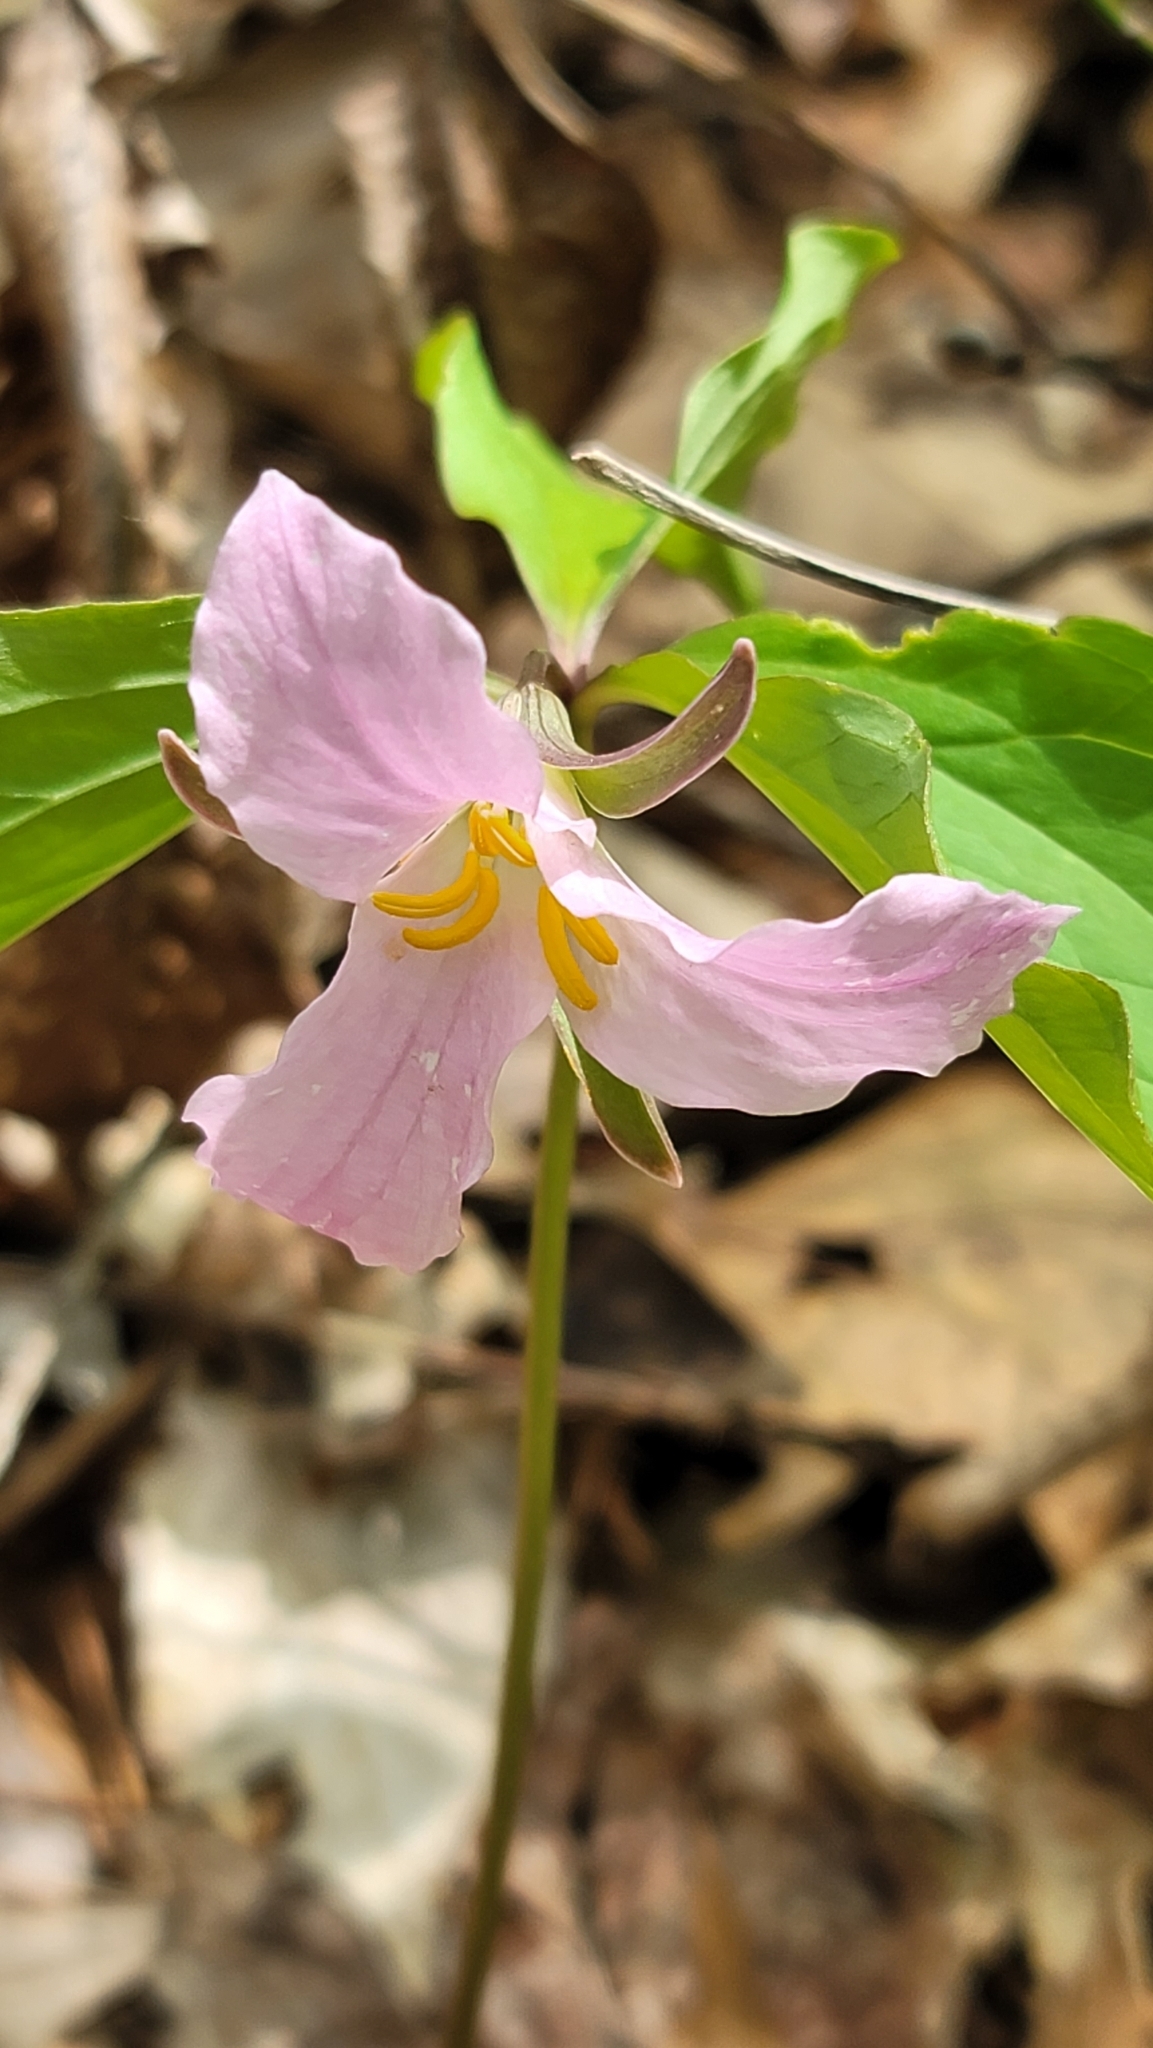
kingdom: Plantae
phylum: Tracheophyta
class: Liliopsida
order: Liliales
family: Melanthiaceae
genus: Trillium
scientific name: Trillium catesbaei
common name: Bashful trillium
